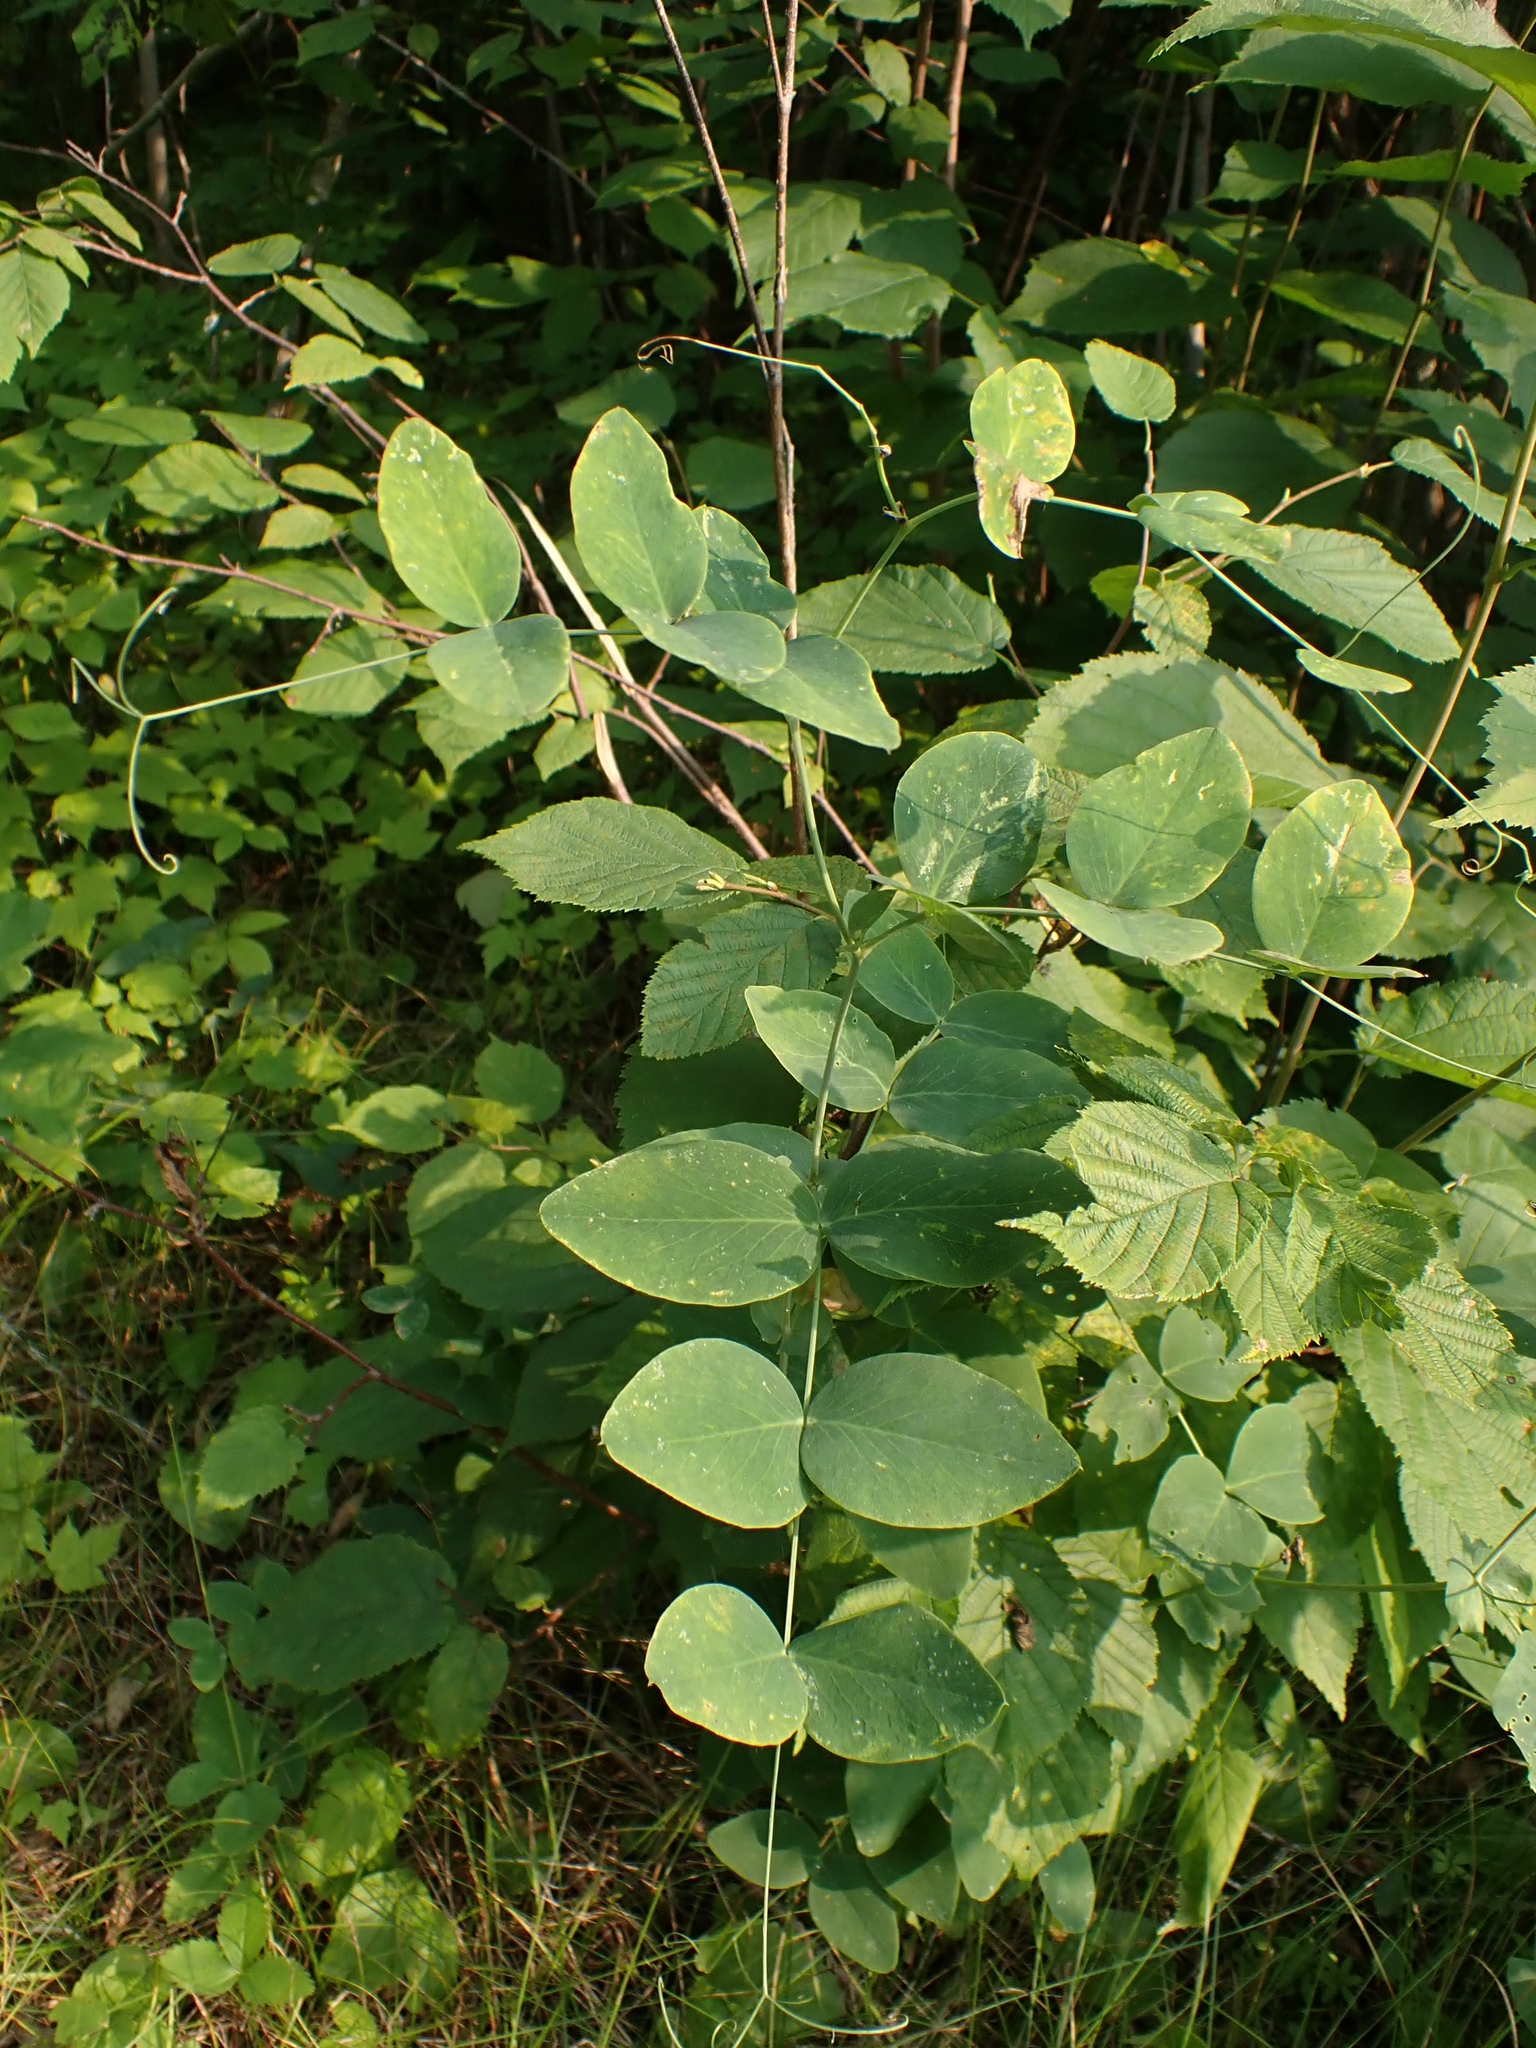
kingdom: Plantae
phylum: Tracheophyta
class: Magnoliopsida
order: Fabales
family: Fabaceae
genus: Lathyrus
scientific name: Lathyrus ochroleucus
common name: Pale vetchling
